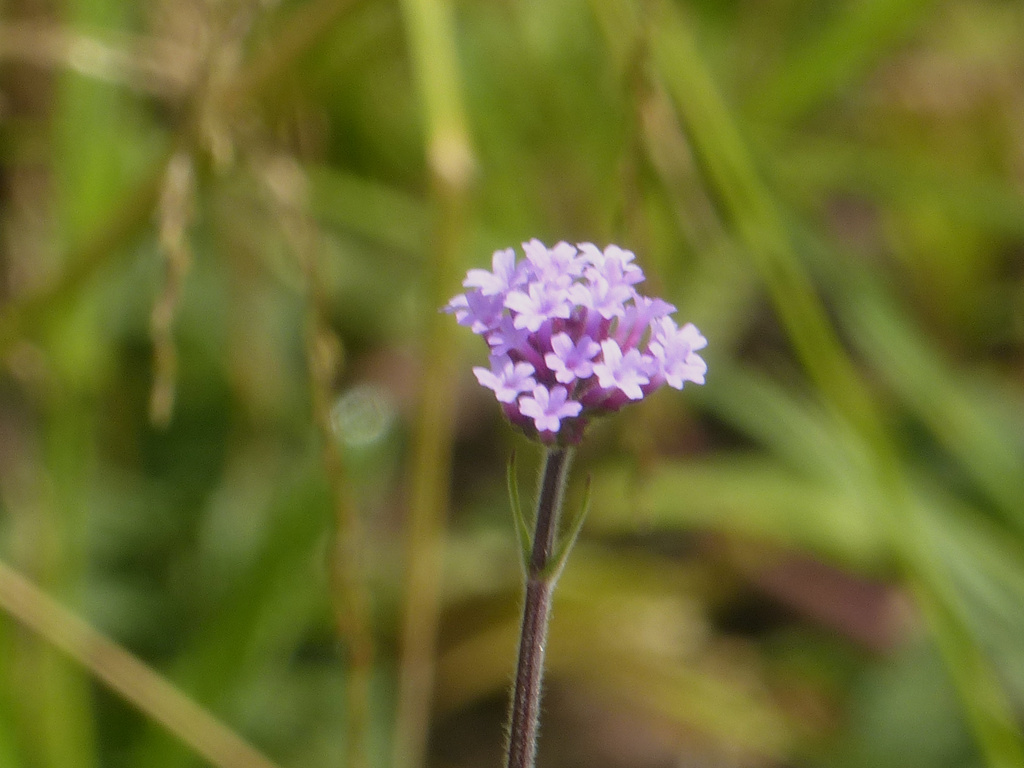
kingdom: Plantae
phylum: Tracheophyta
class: Magnoliopsida
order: Lamiales
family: Verbenaceae
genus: Verbena
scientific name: Verbena bonariensis
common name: Purpletop vervain
